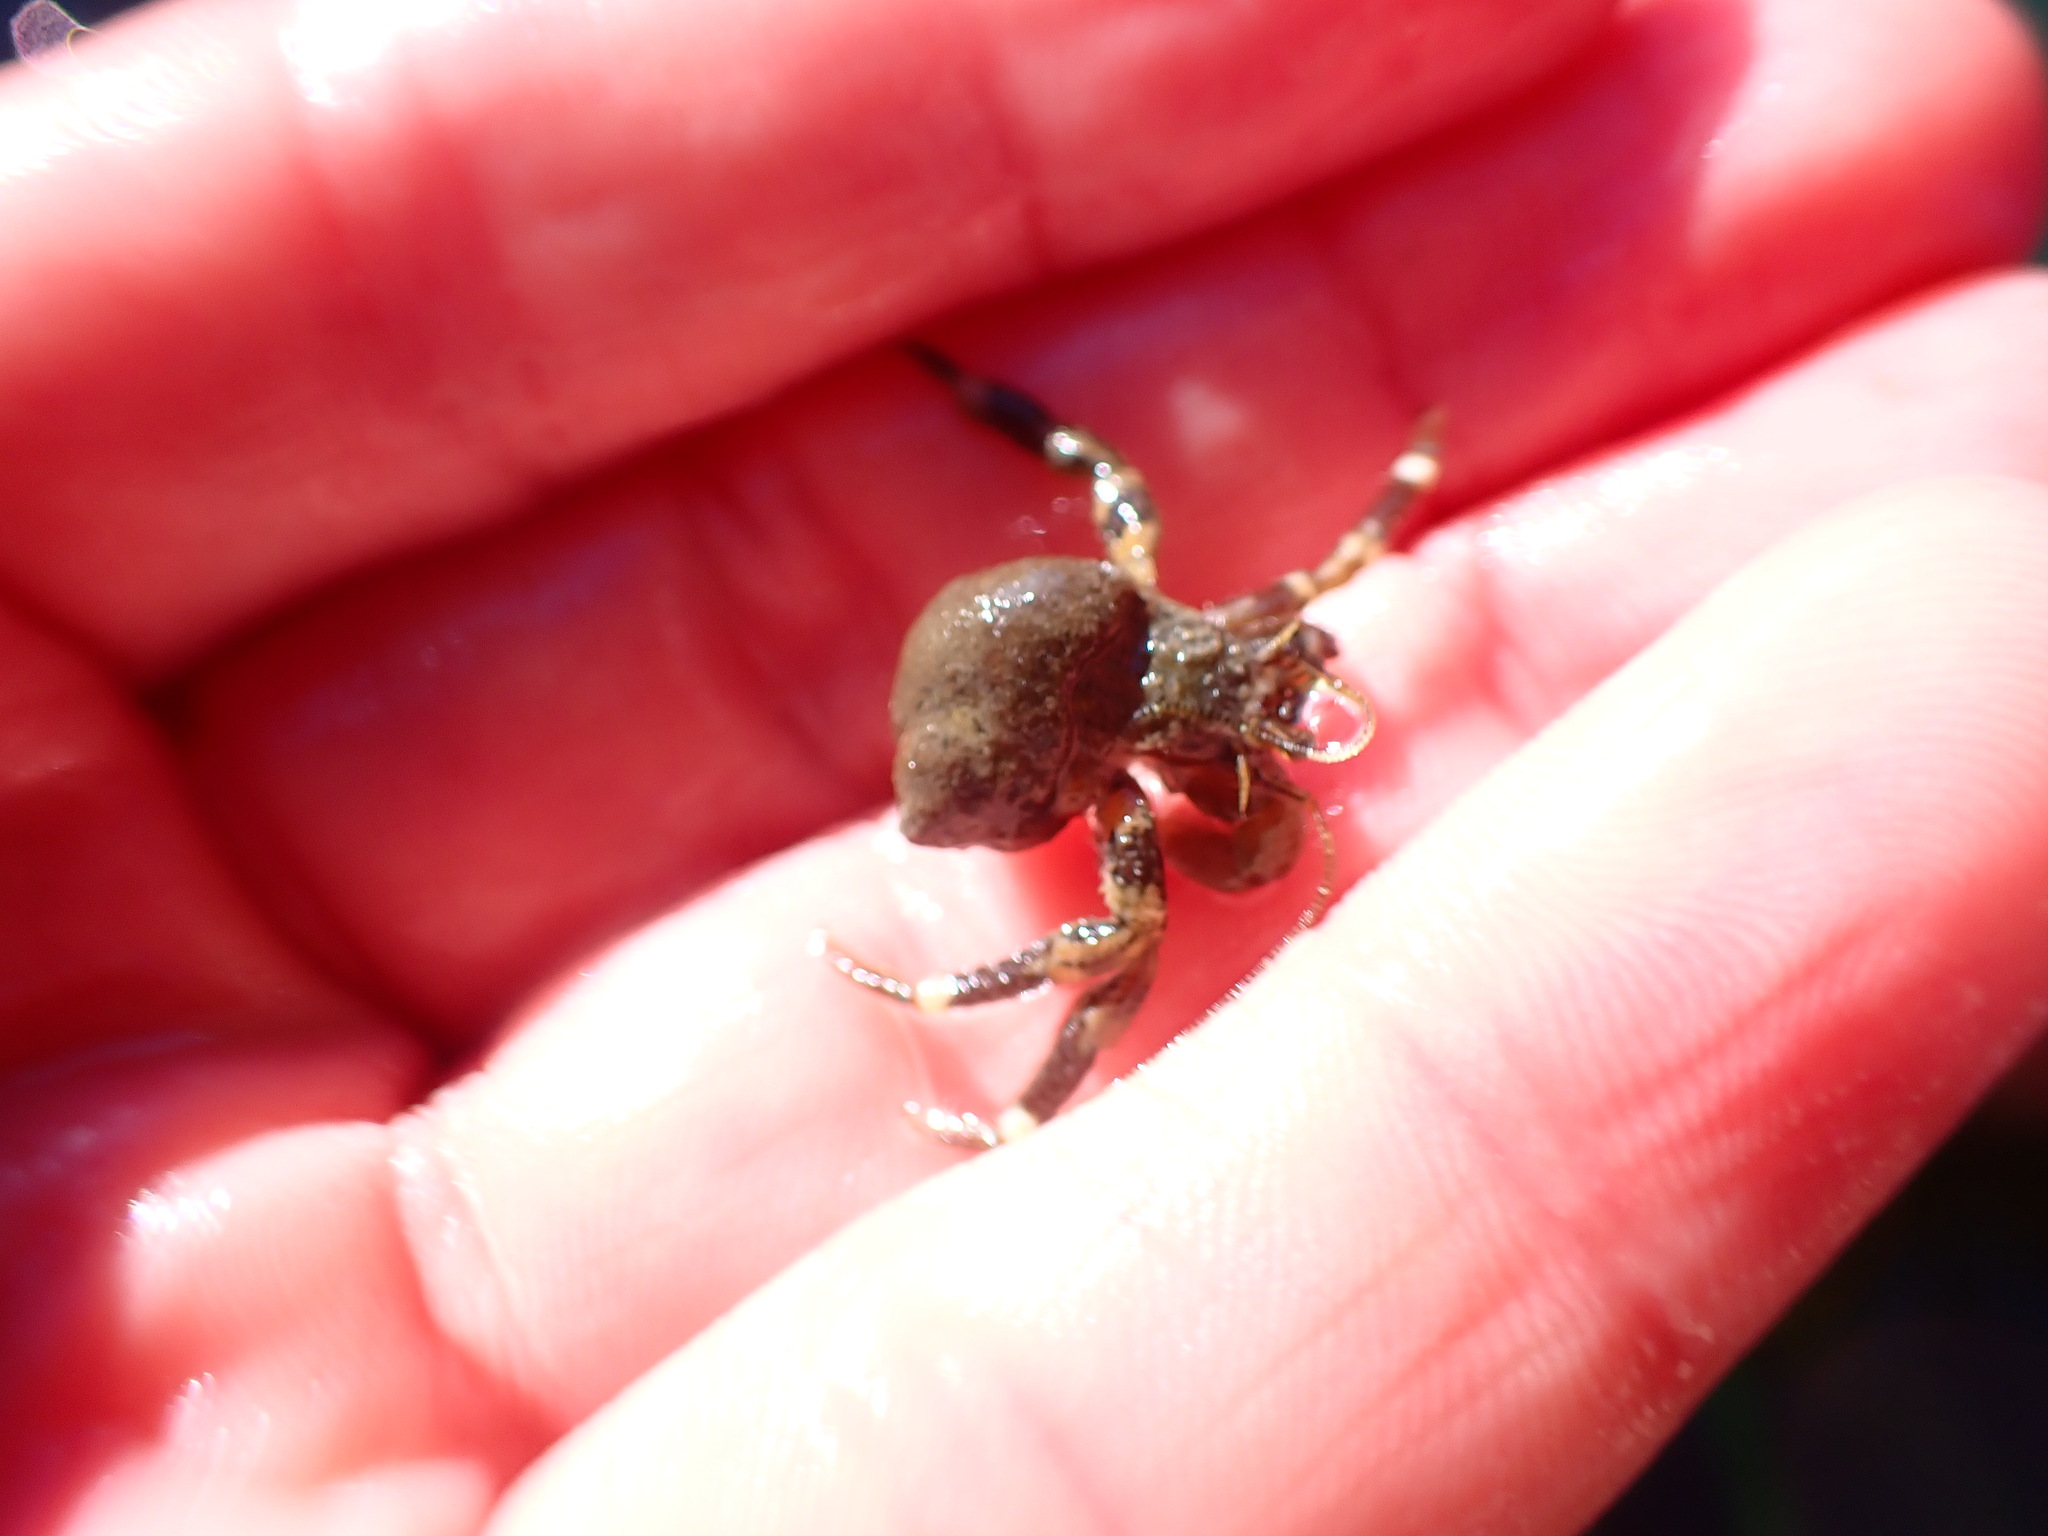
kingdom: Animalia
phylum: Arthropoda
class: Malacostraca
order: Decapoda
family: Paguridae
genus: Pagurus
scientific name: Pagurus hirsutiusculus
